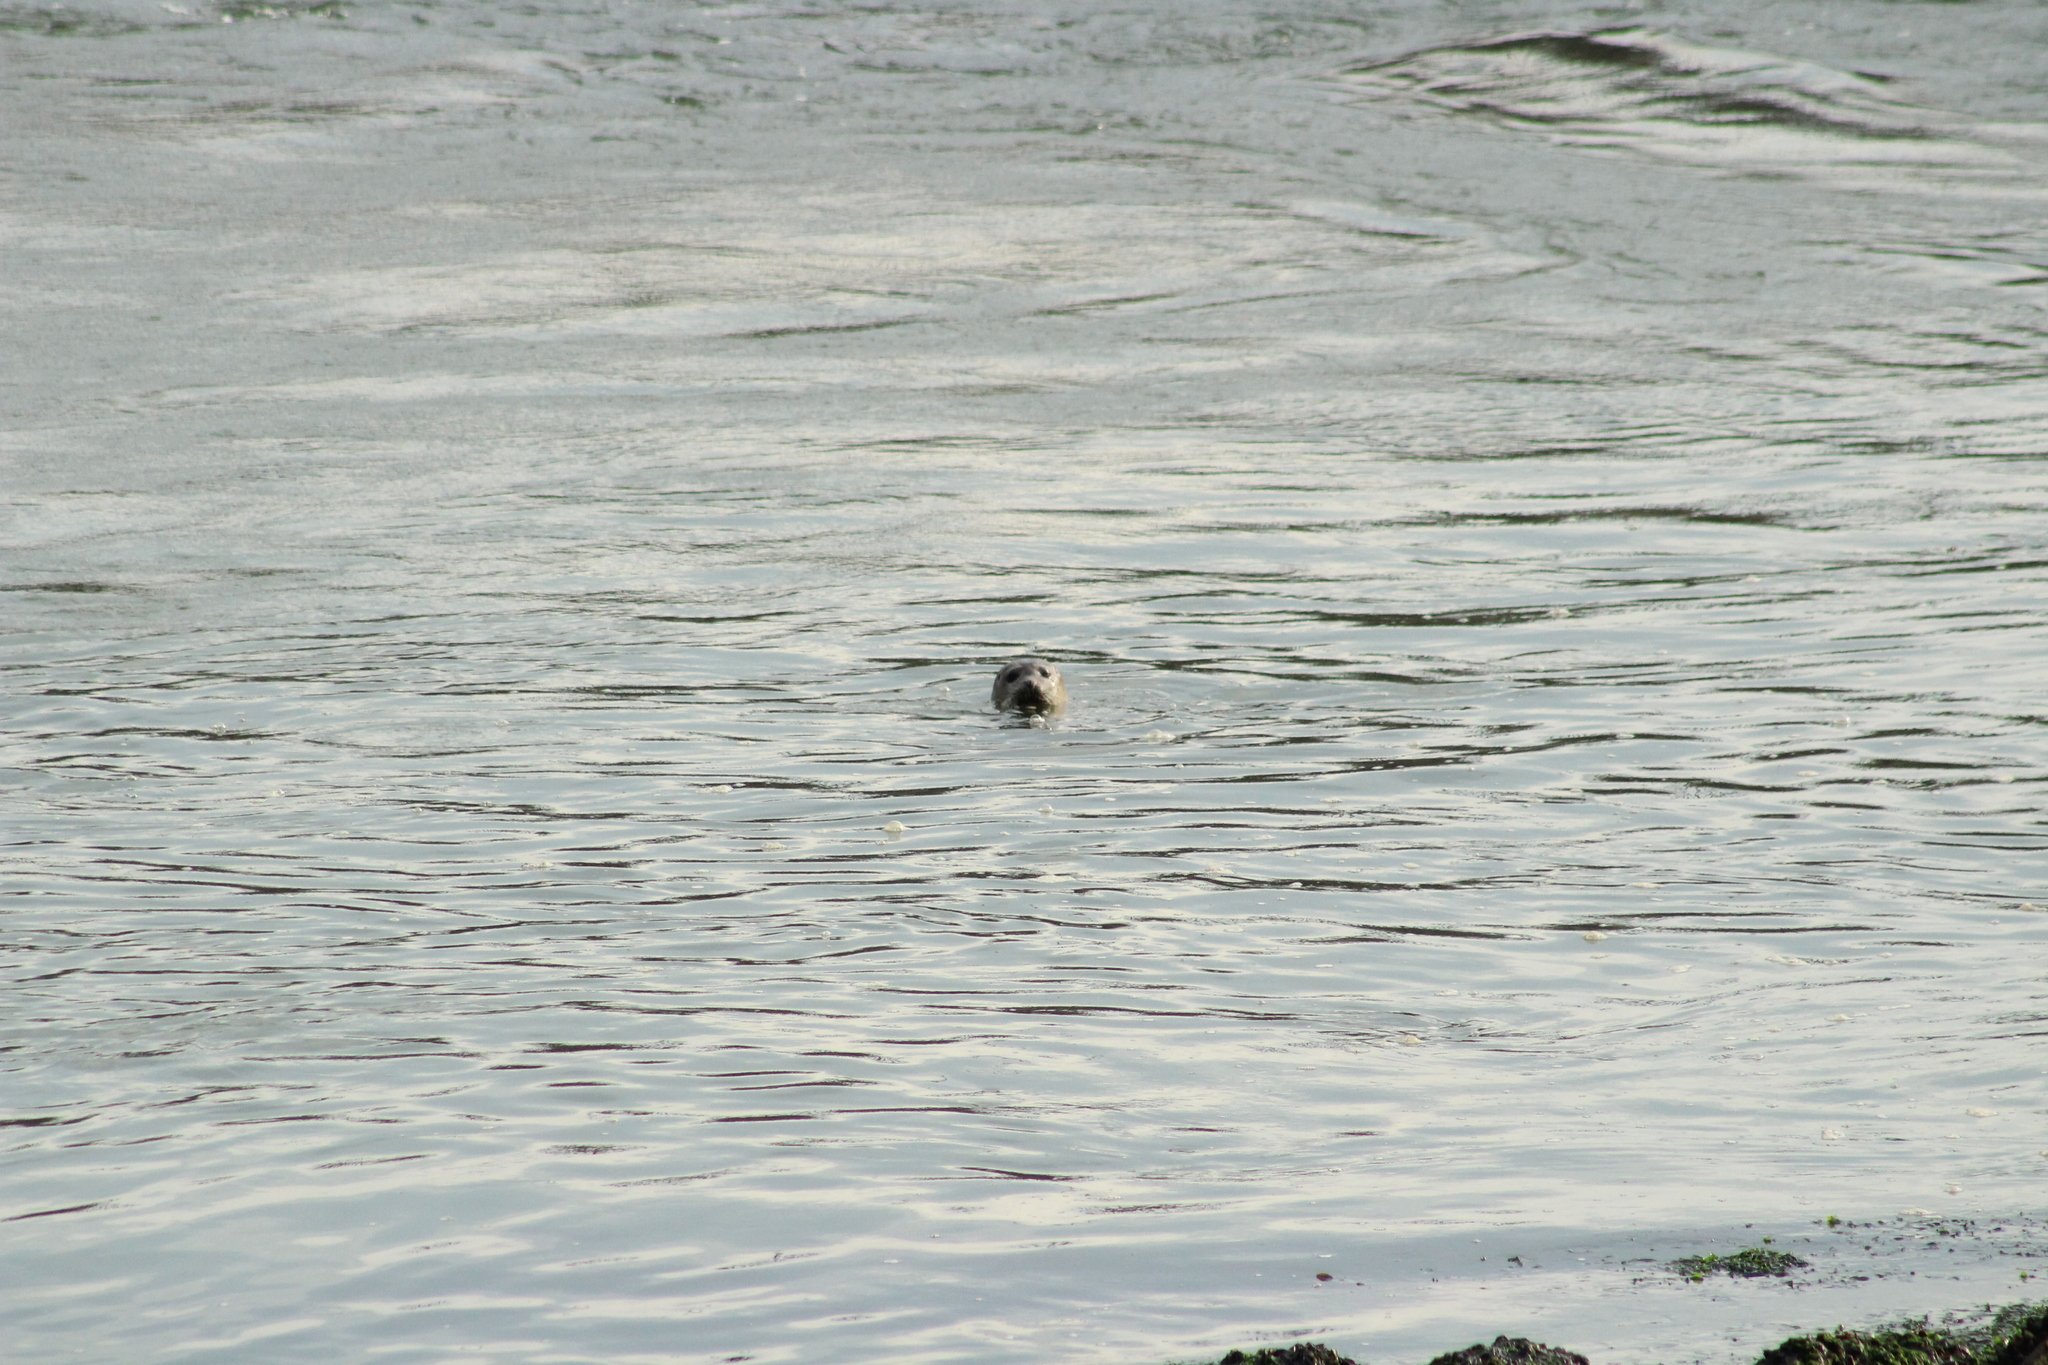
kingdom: Animalia
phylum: Chordata
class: Mammalia
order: Carnivora
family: Phocidae
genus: Phoca
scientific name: Phoca vitulina
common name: Harbor seal
